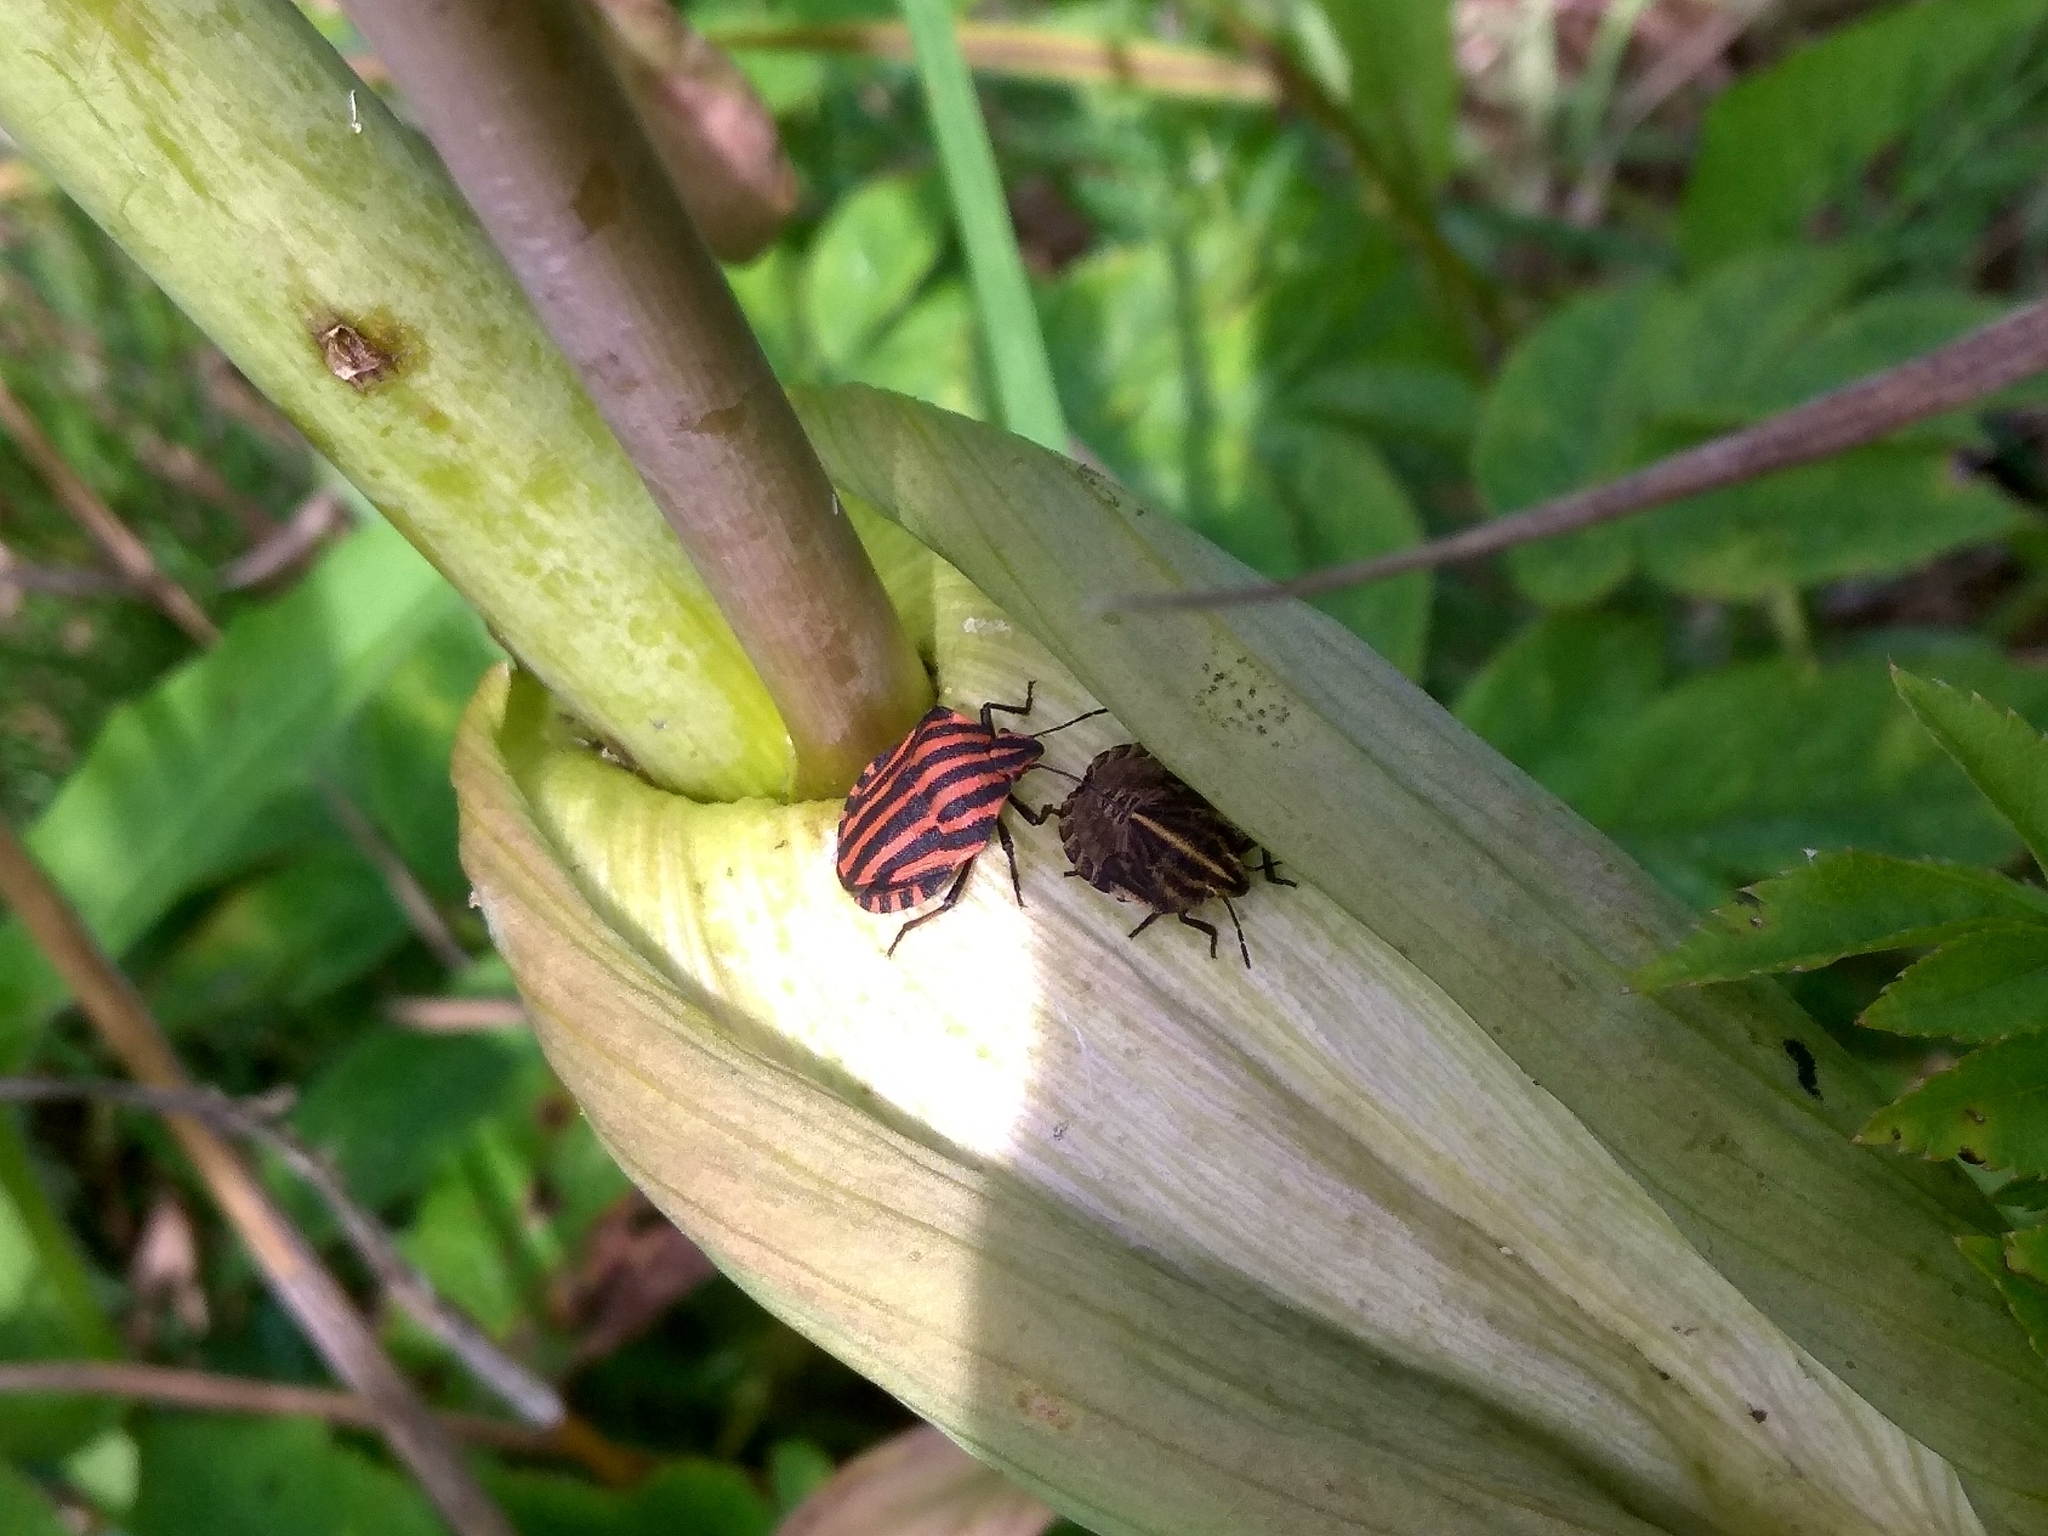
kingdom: Animalia
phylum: Arthropoda
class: Insecta
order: Hemiptera
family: Pentatomidae
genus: Graphosoma
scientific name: Graphosoma italicum
